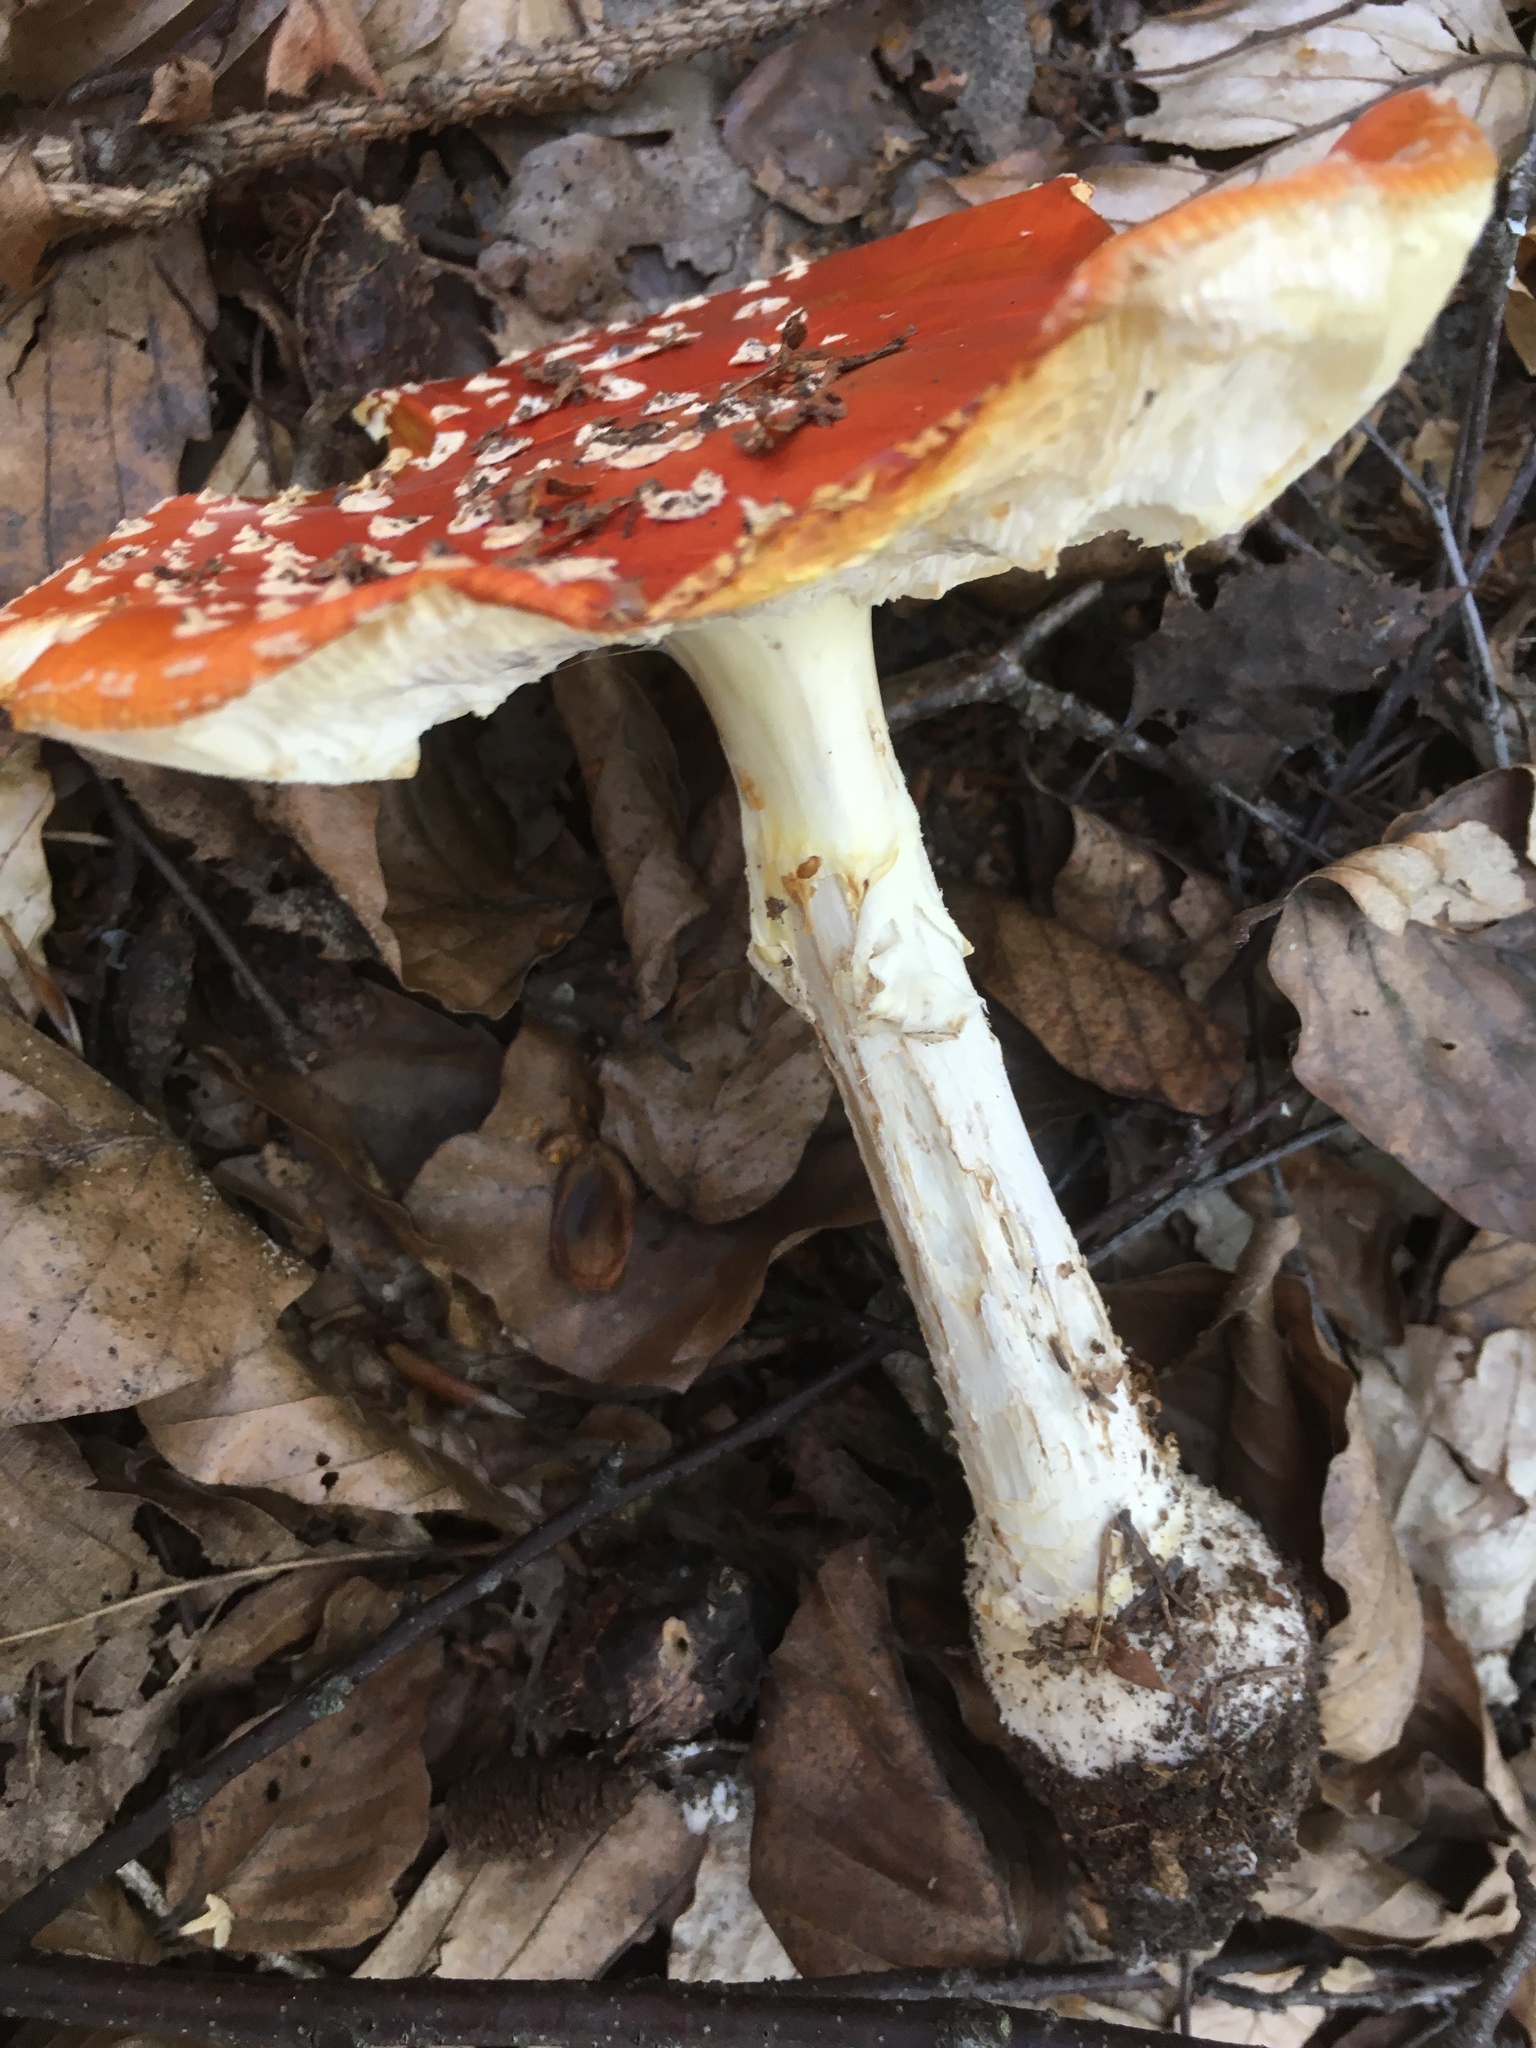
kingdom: Fungi
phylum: Basidiomycota
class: Agaricomycetes
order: Agaricales
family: Amanitaceae
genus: Amanita
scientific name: Amanita muscaria
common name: Fly agaric
